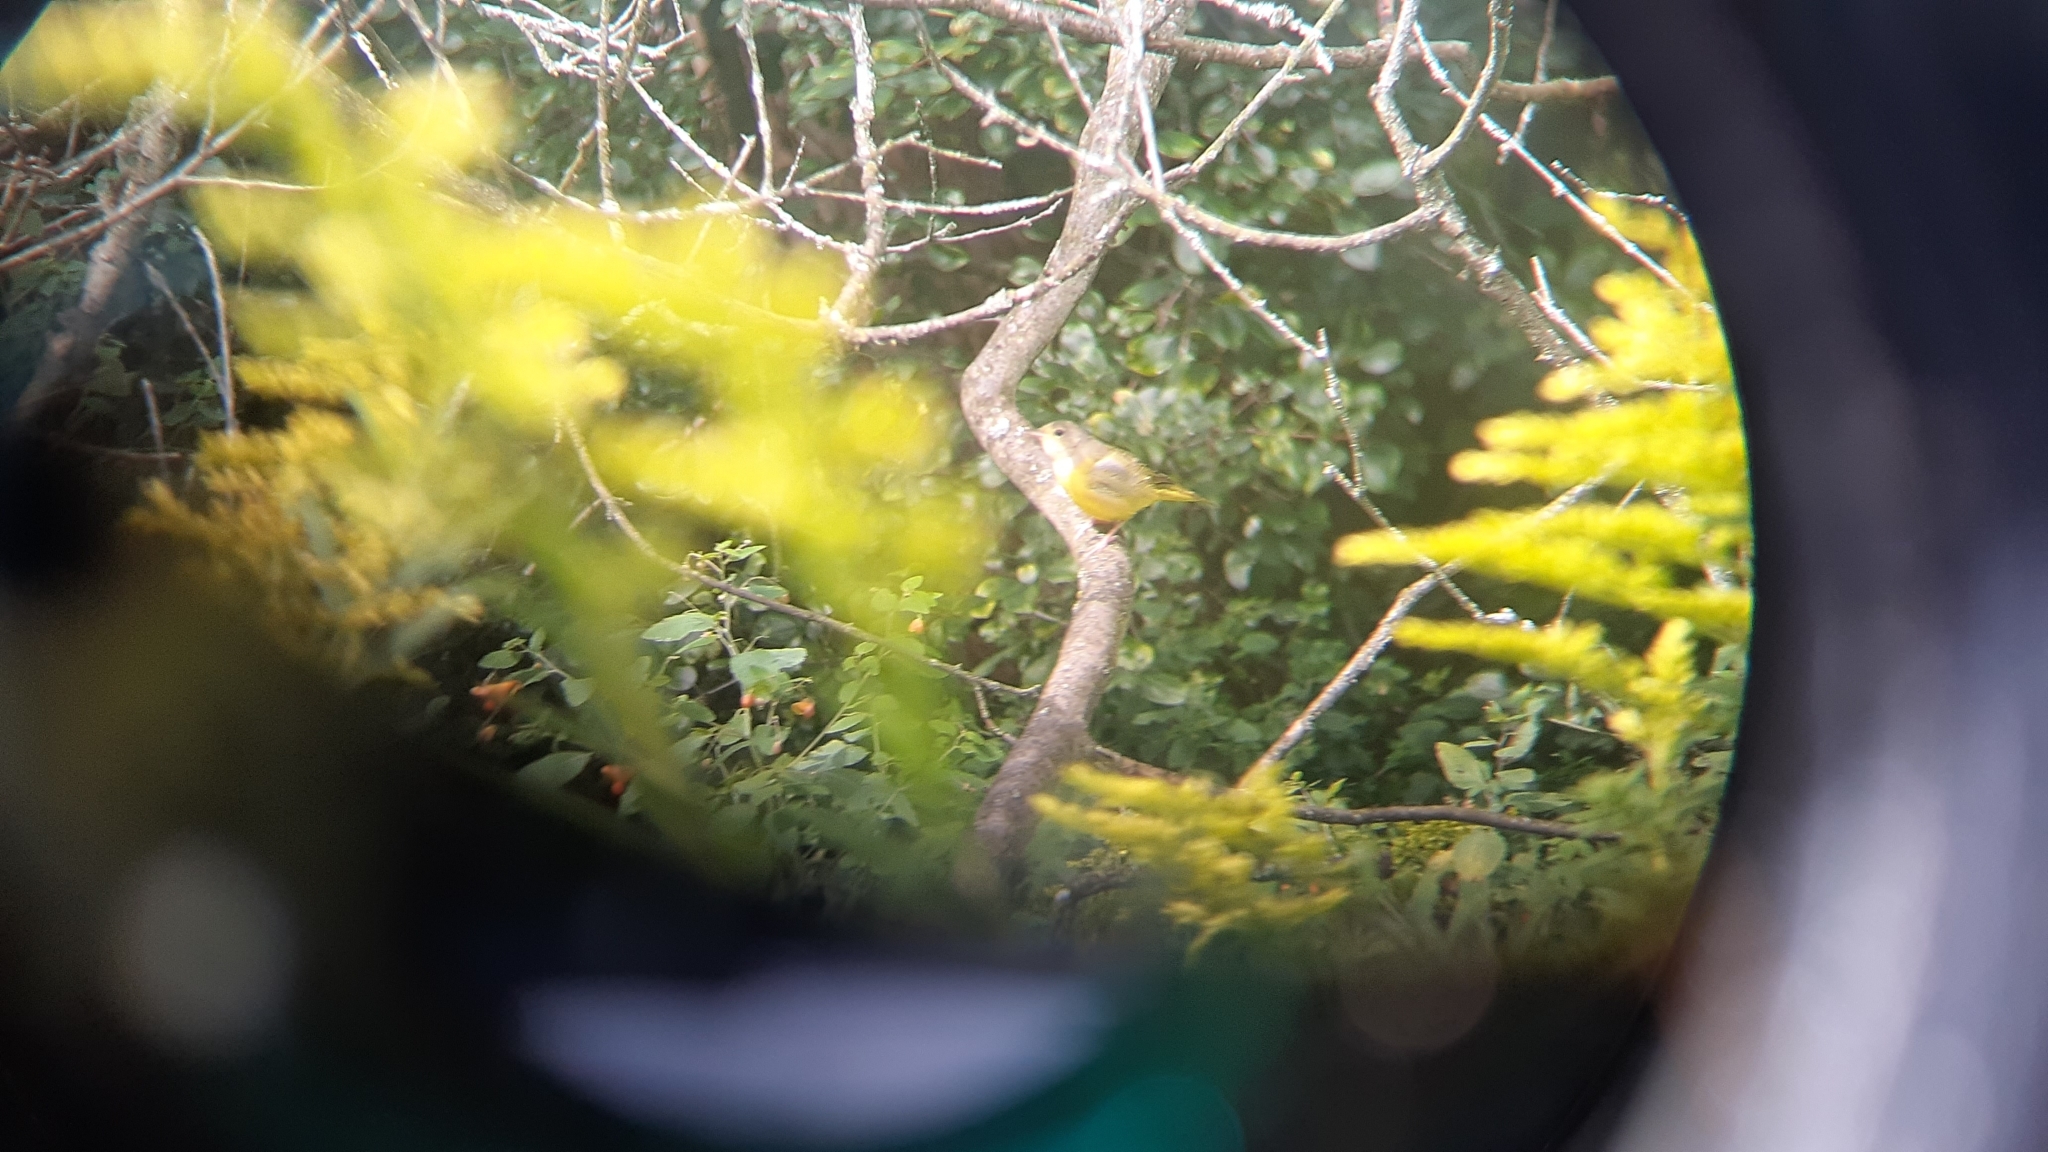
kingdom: Animalia
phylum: Chordata
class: Aves
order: Passeriformes
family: Parulidae
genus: Geothlypis
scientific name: Geothlypis philadelphia
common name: Mourning warbler
